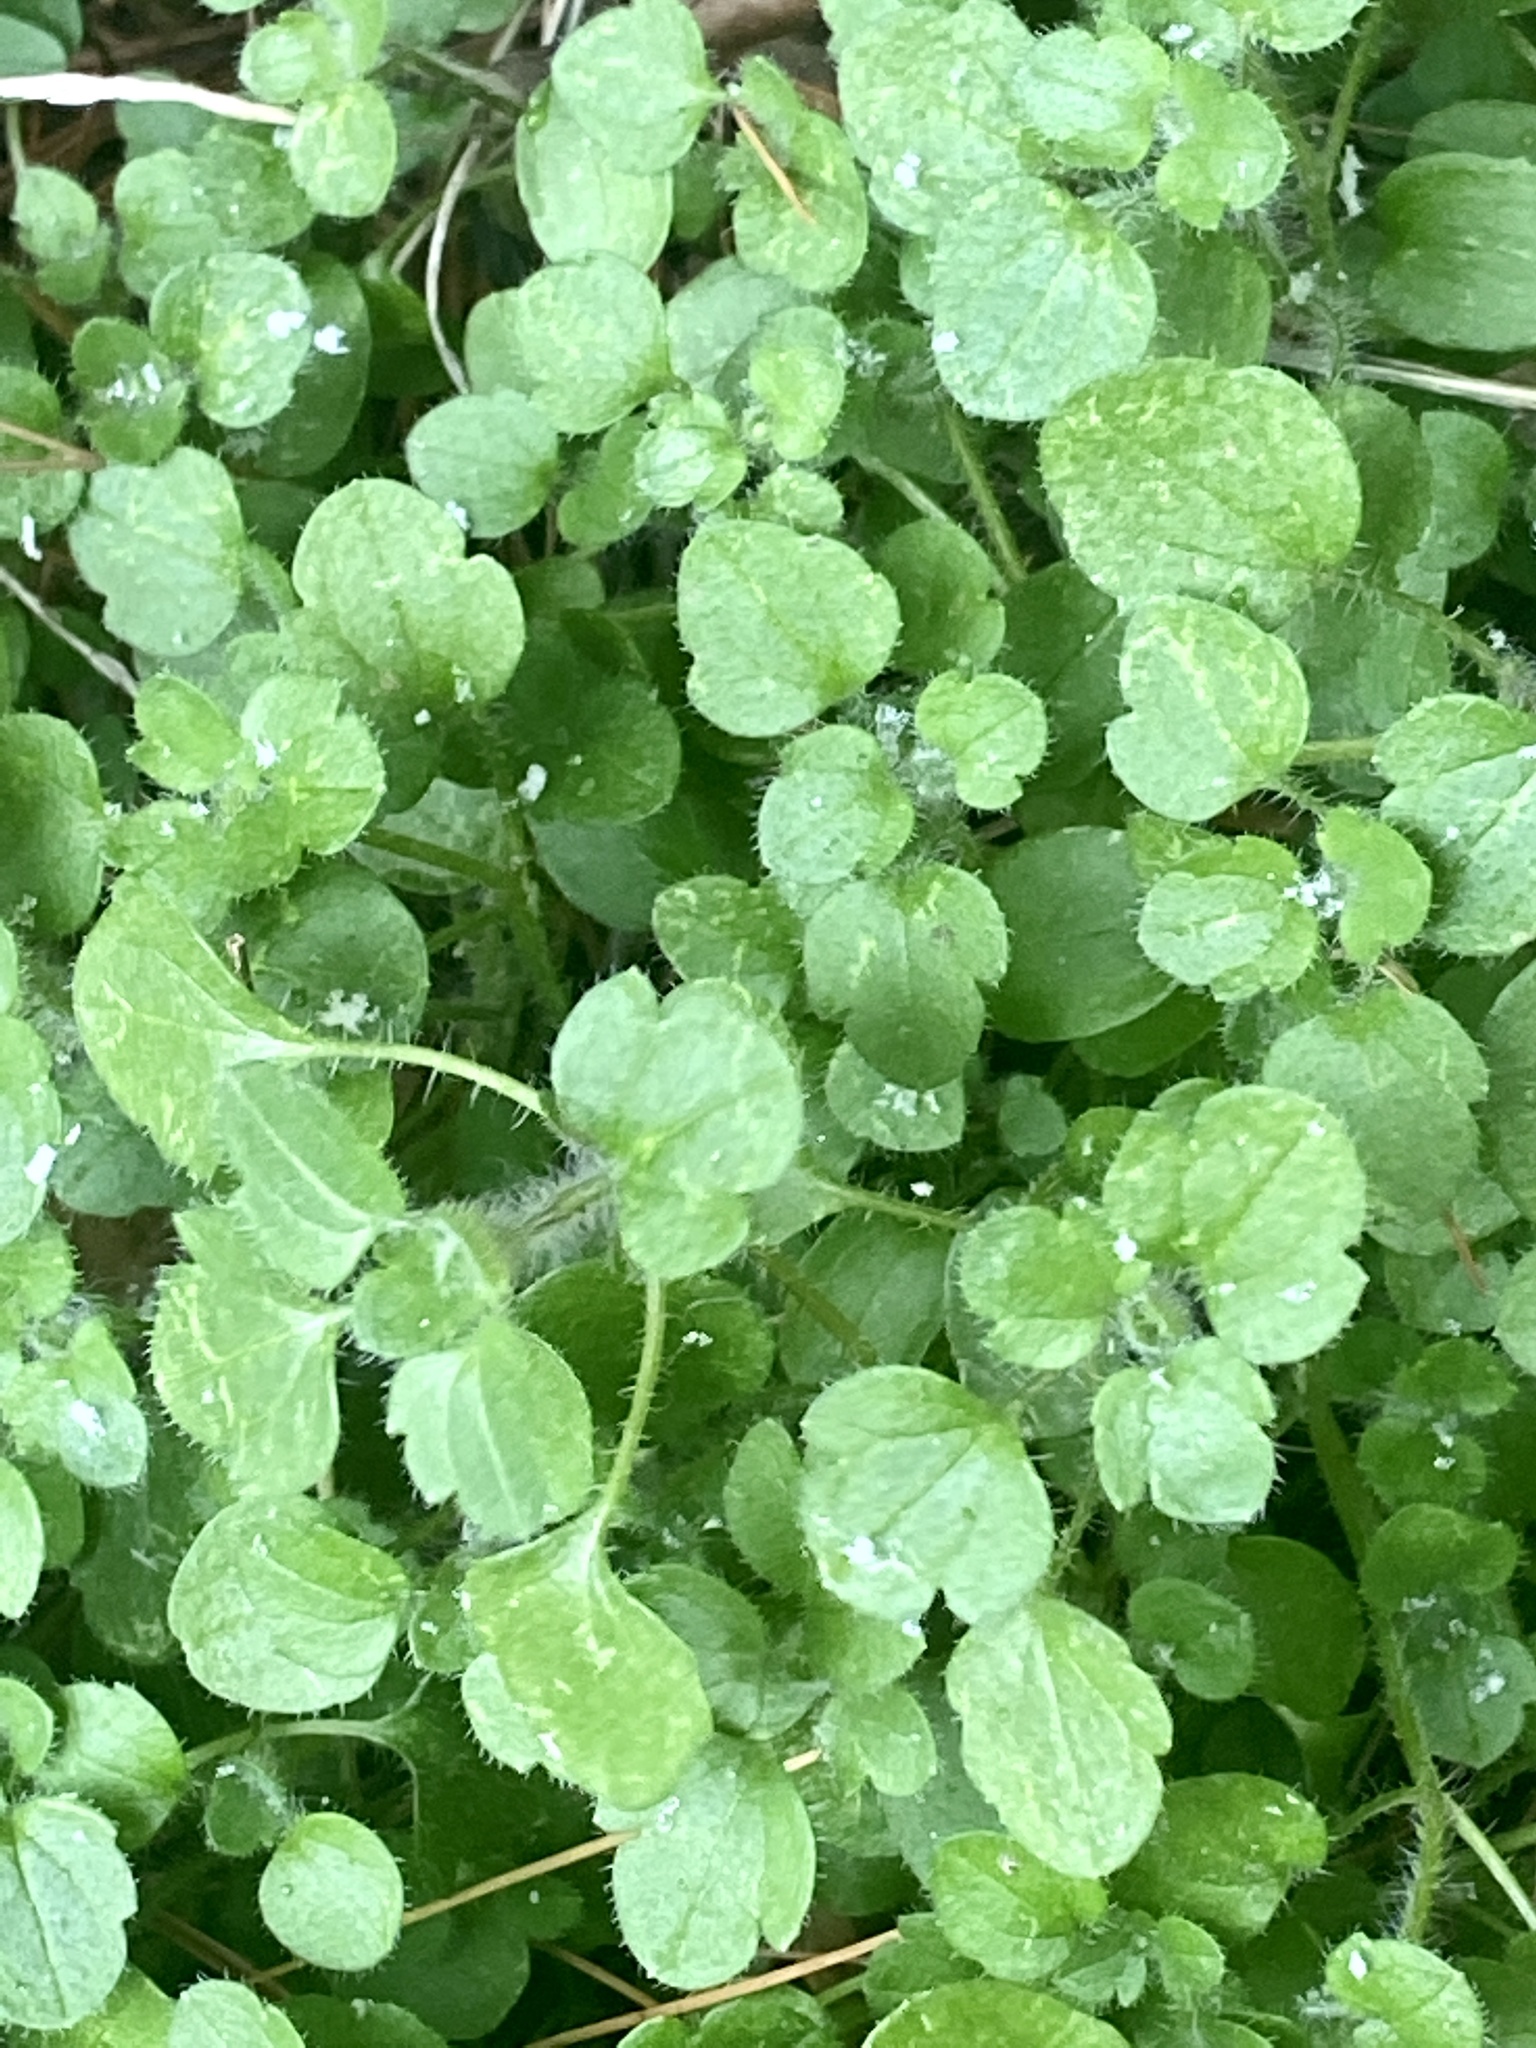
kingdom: Plantae
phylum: Tracheophyta
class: Magnoliopsida
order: Lamiales
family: Plantaginaceae
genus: Veronica
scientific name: Veronica hederifolia
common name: Ivy-leaved speedwell
